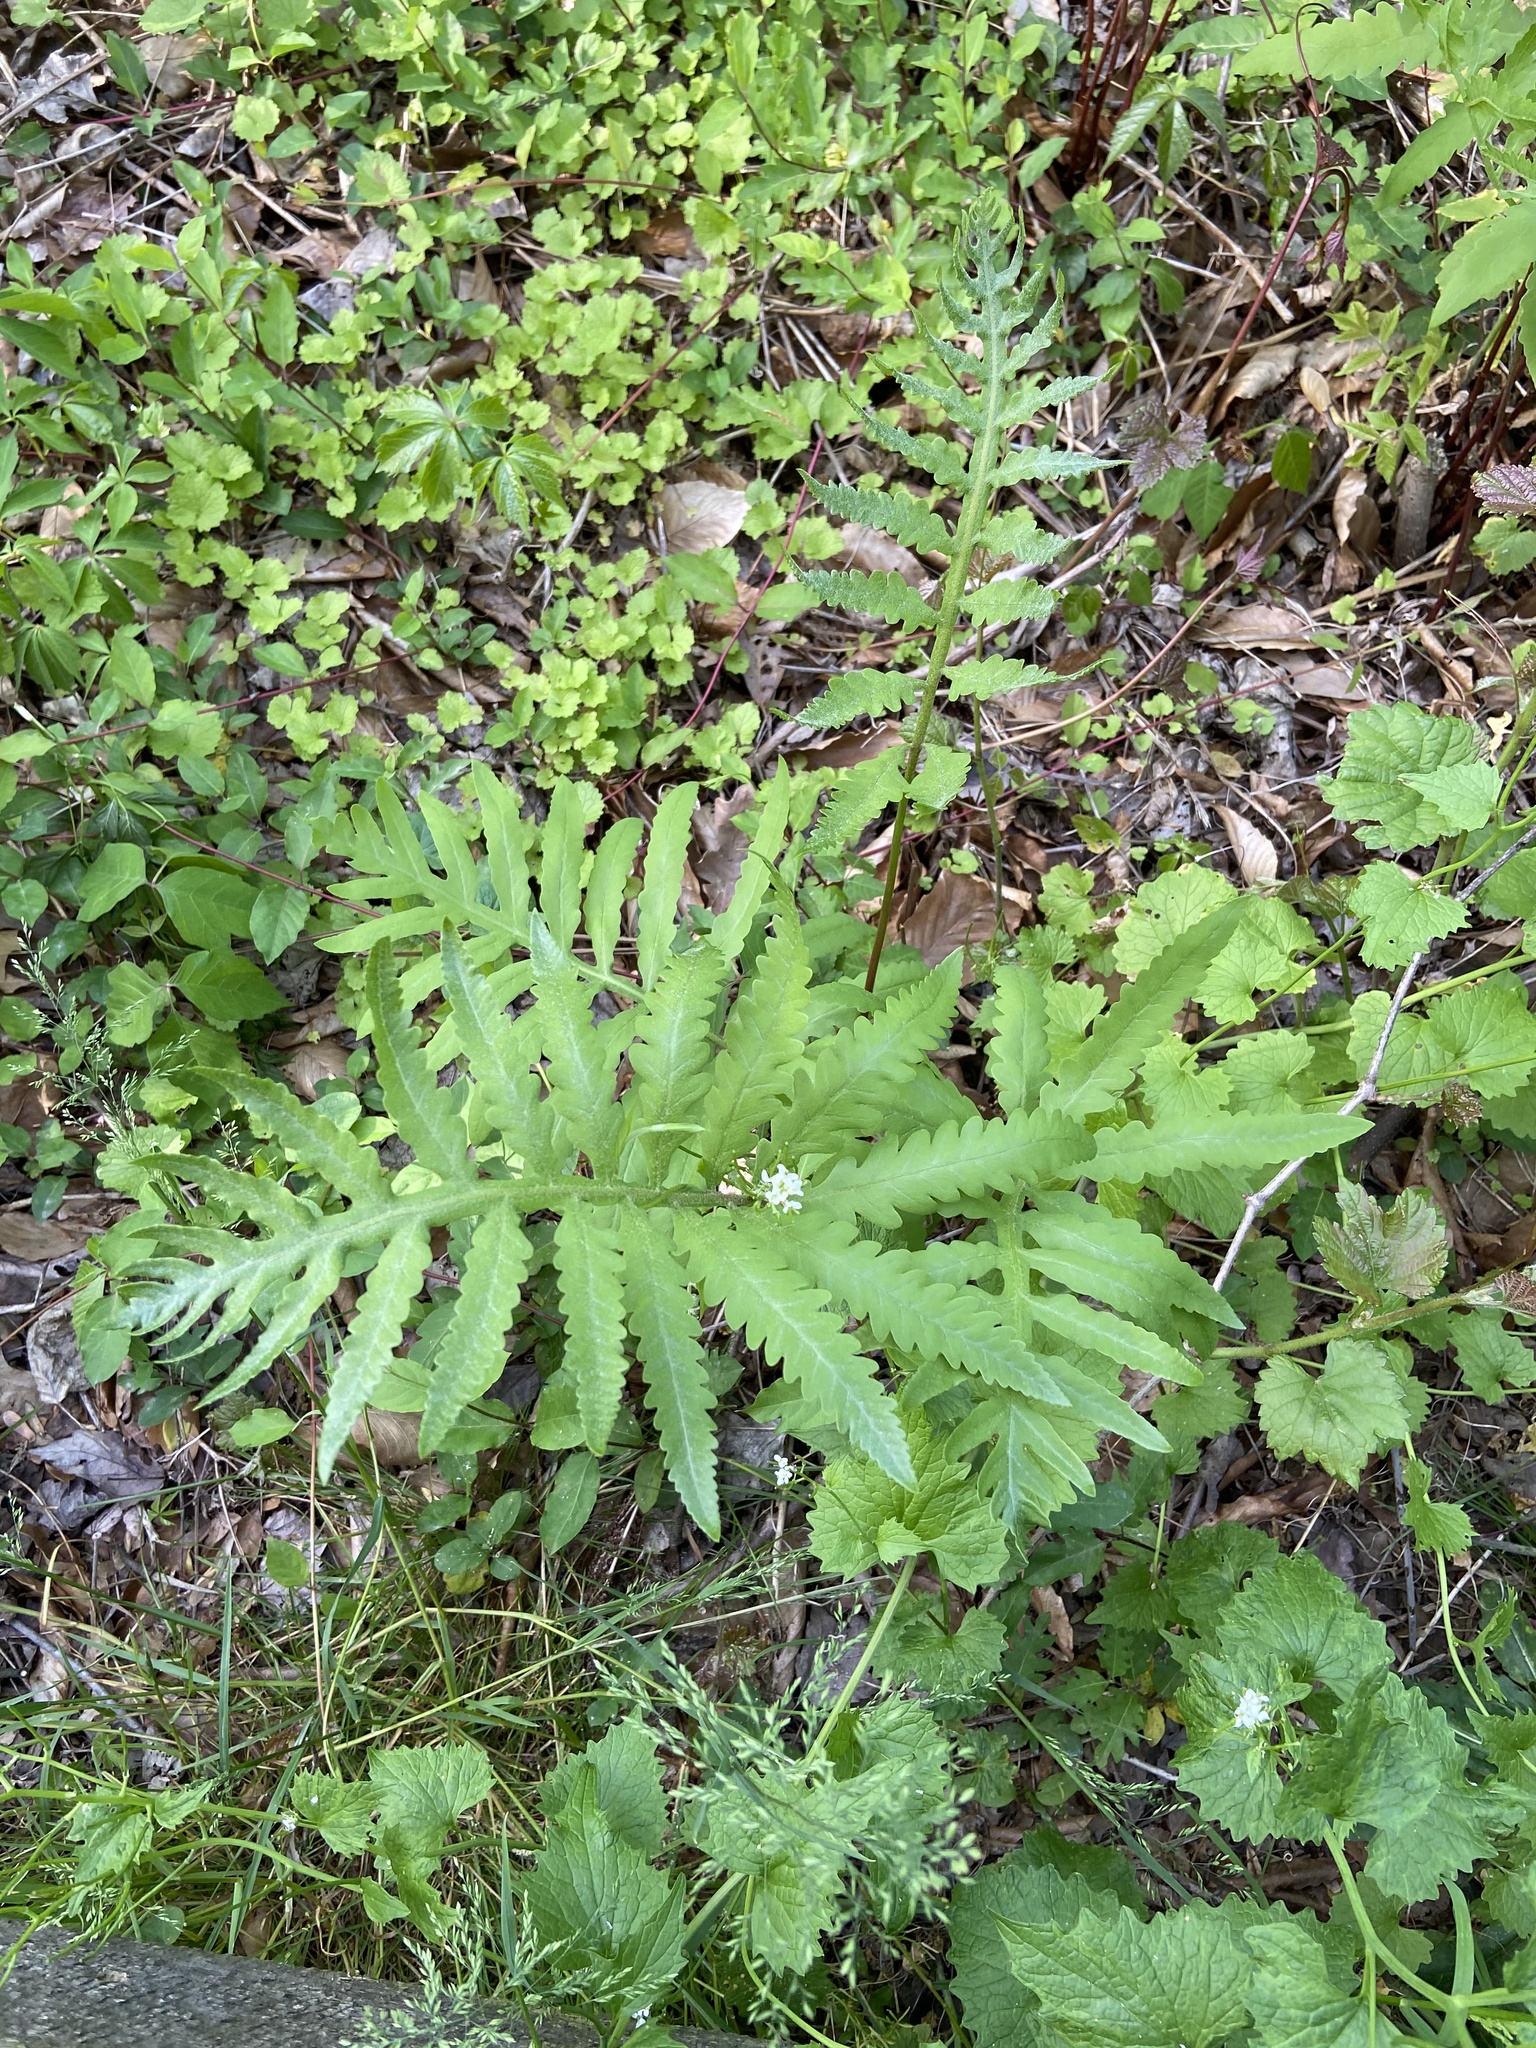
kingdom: Plantae
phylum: Tracheophyta
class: Polypodiopsida
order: Polypodiales
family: Onocleaceae
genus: Onoclea
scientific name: Onoclea sensibilis
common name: Sensitive fern
